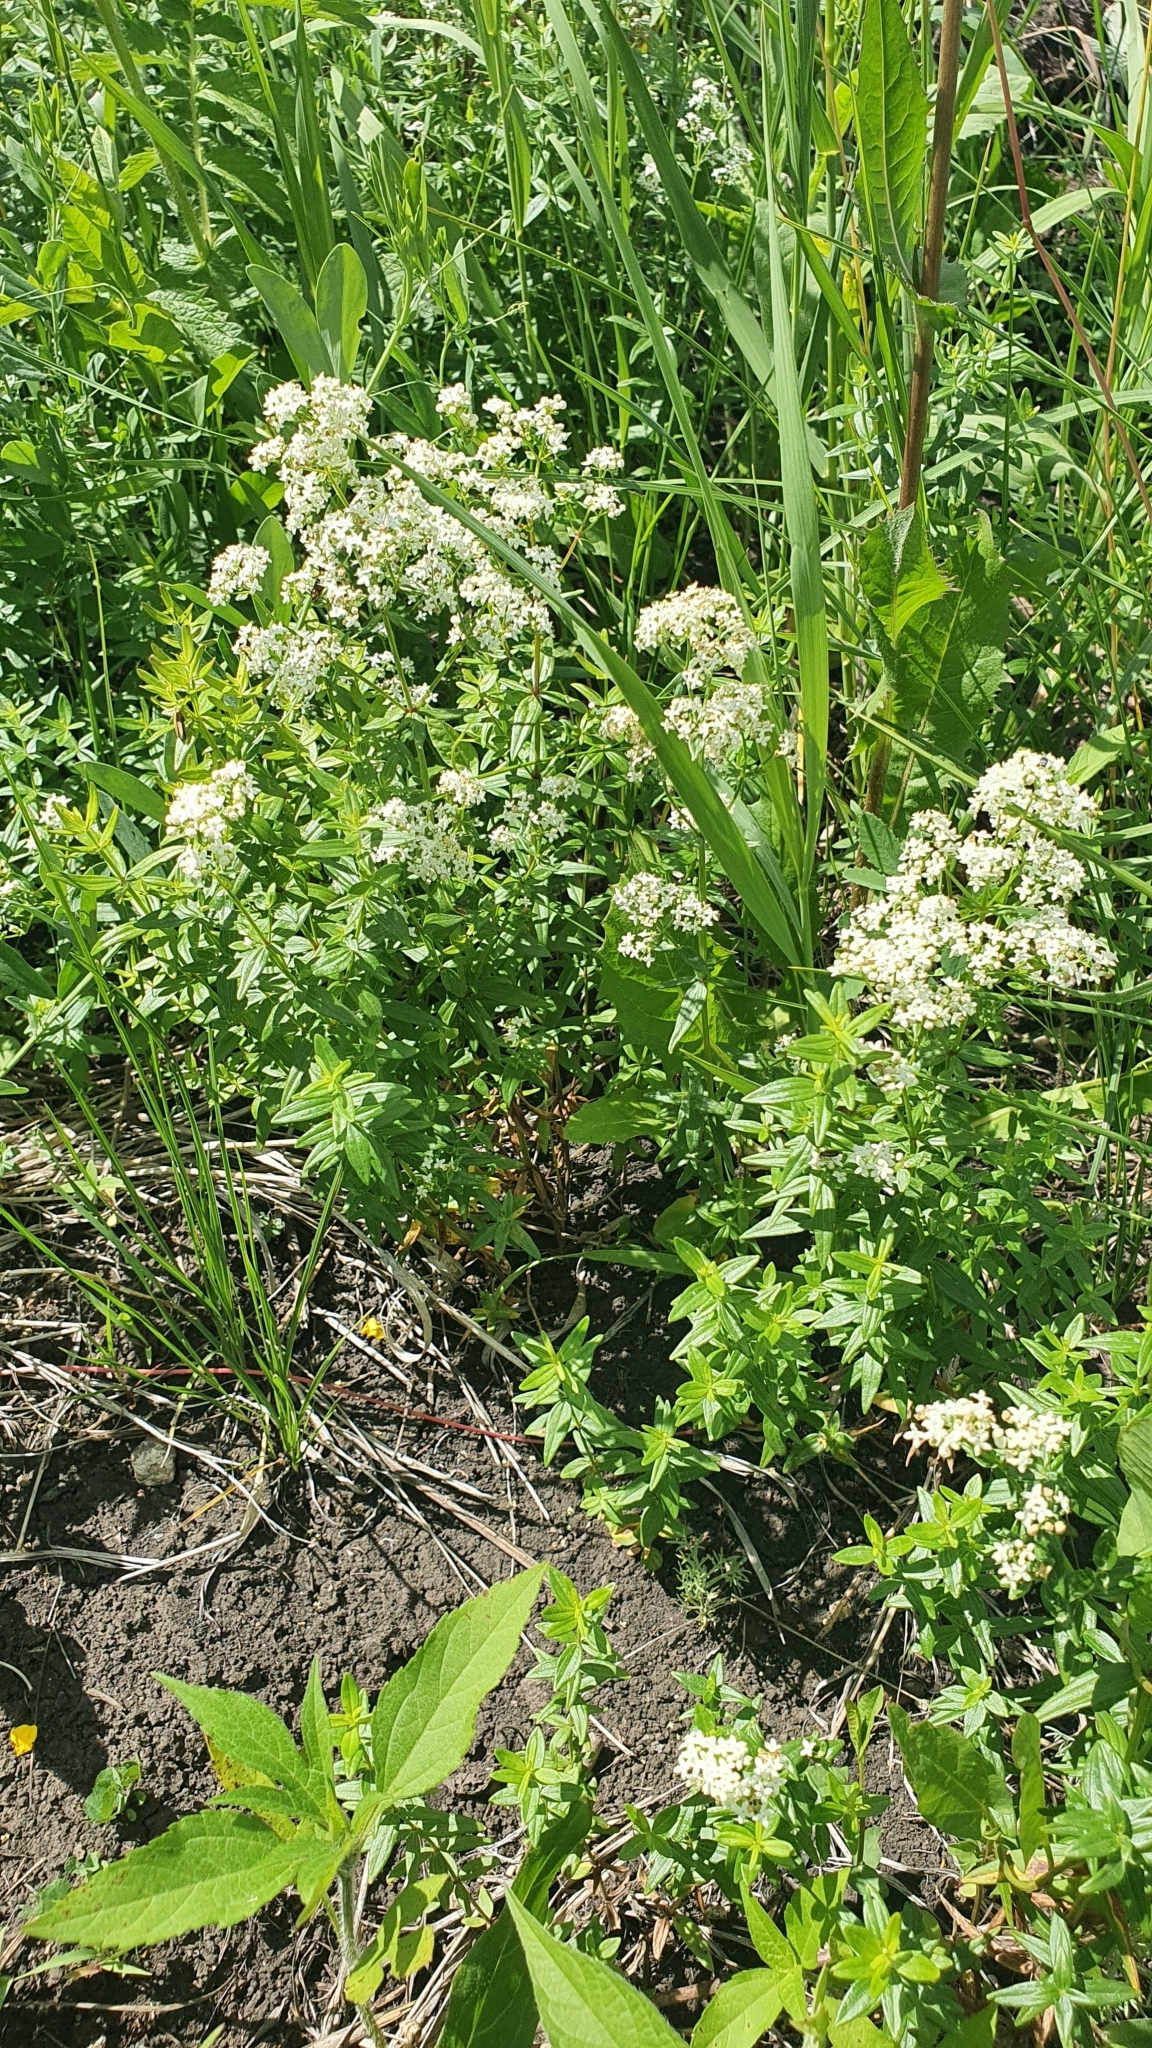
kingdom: Plantae
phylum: Tracheophyta
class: Magnoliopsida
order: Gentianales
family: Rubiaceae
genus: Galium
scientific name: Galium boreale
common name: Northern bedstraw
